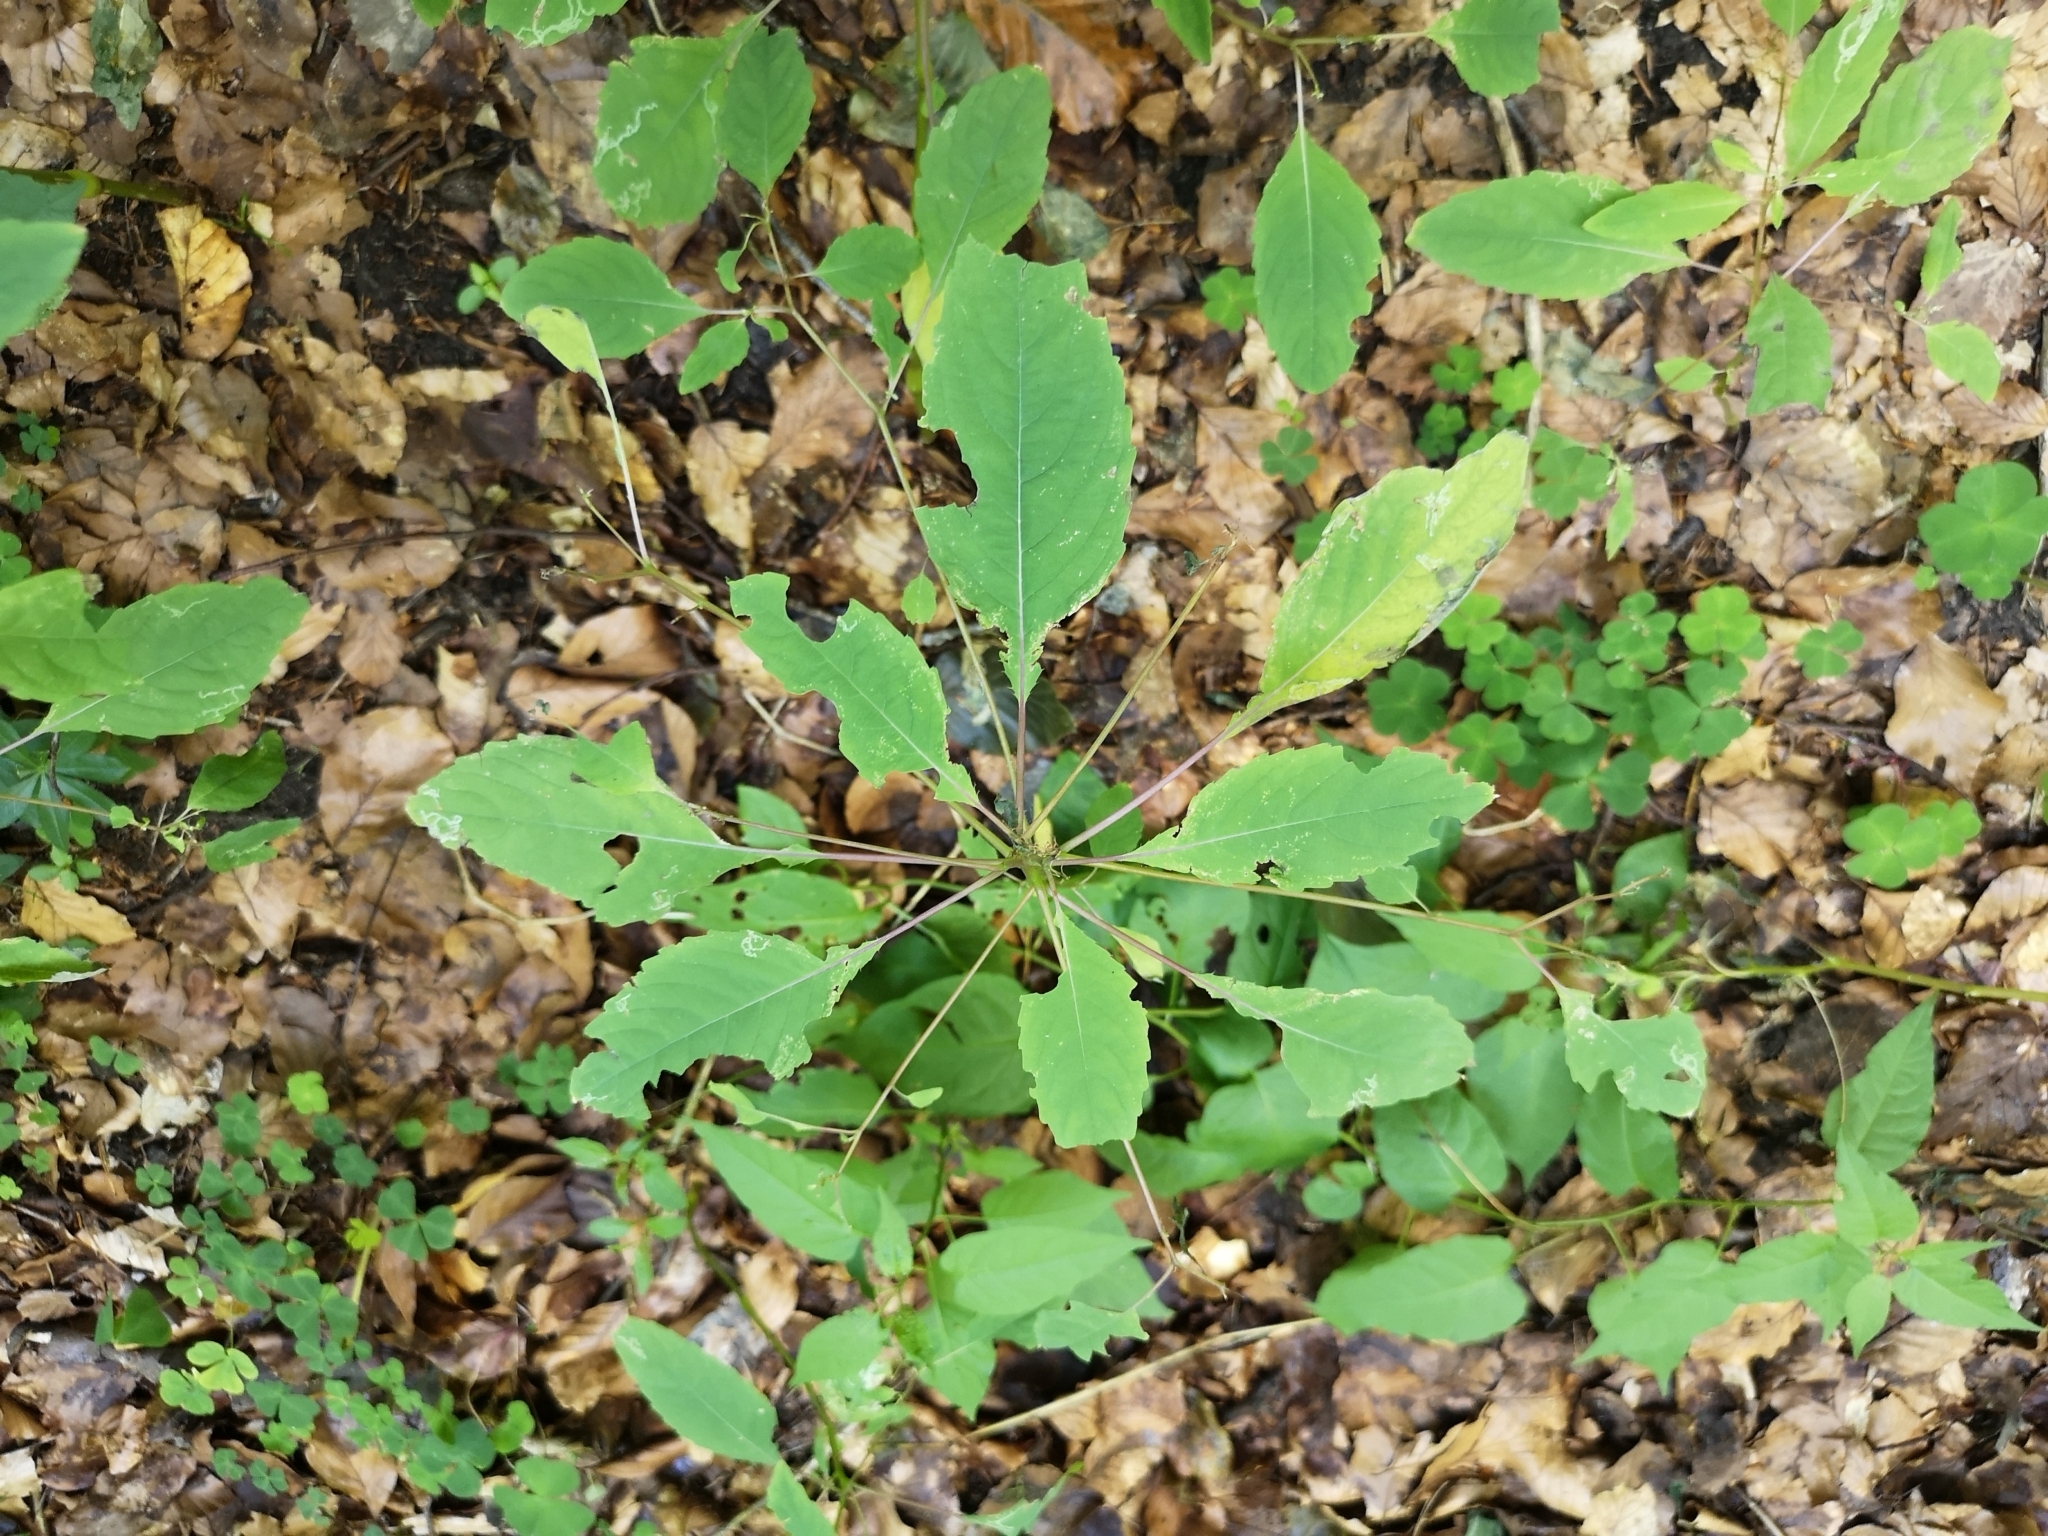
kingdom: Plantae
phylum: Tracheophyta
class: Magnoliopsida
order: Ericales
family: Balsaminaceae
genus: Impatiens
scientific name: Impatiens noli-tangere
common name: Touch-me-not balsam
